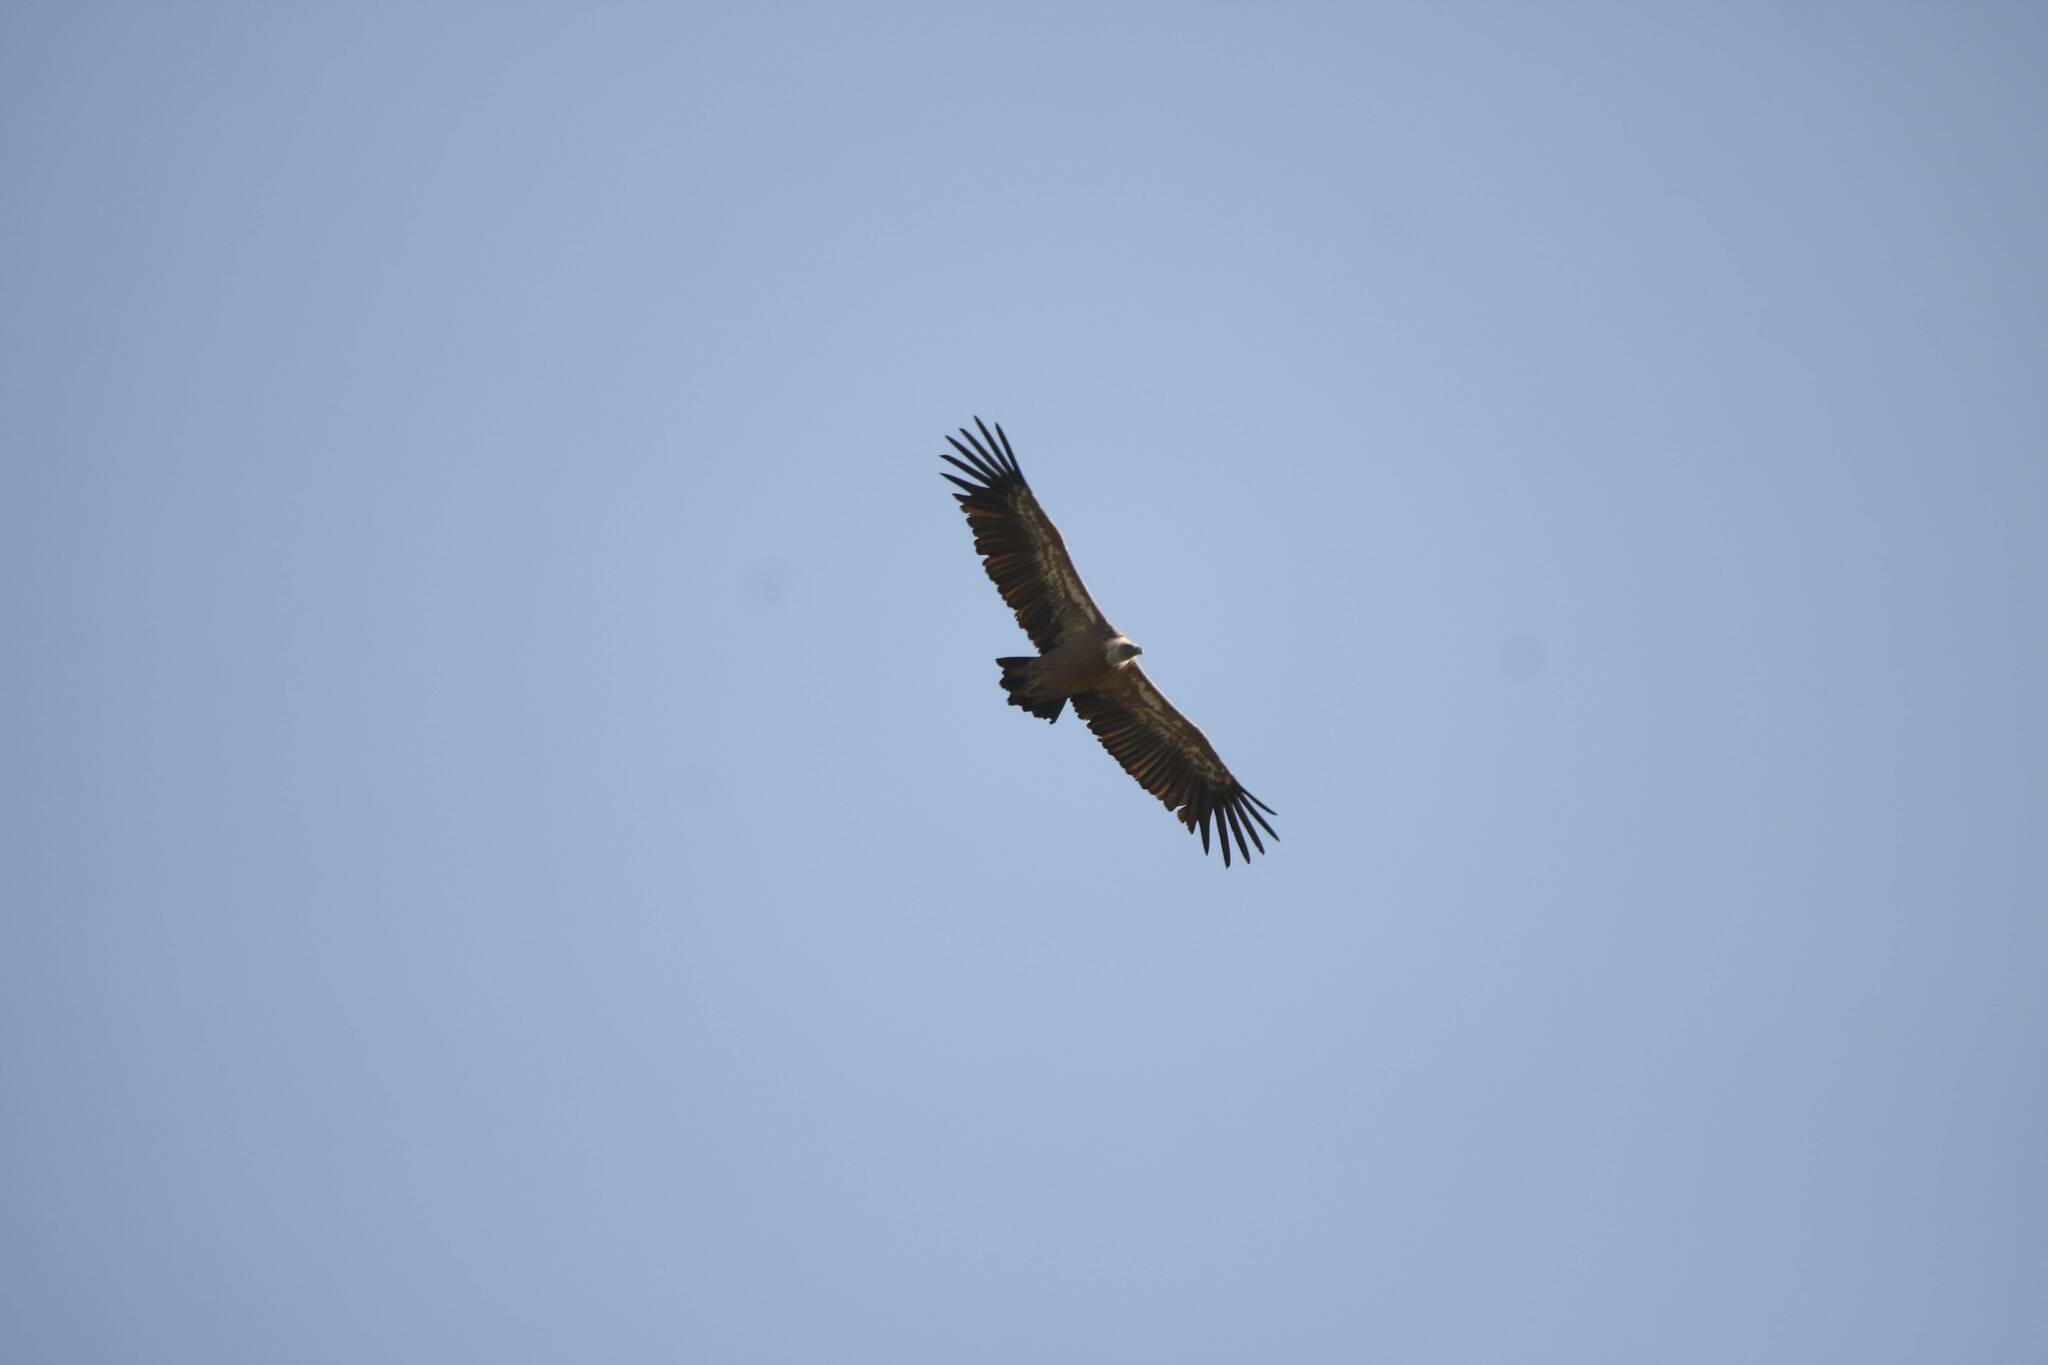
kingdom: Animalia
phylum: Chordata
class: Aves
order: Accipitriformes
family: Accipitridae
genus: Gyps
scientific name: Gyps fulvus
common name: Griffon vulture
